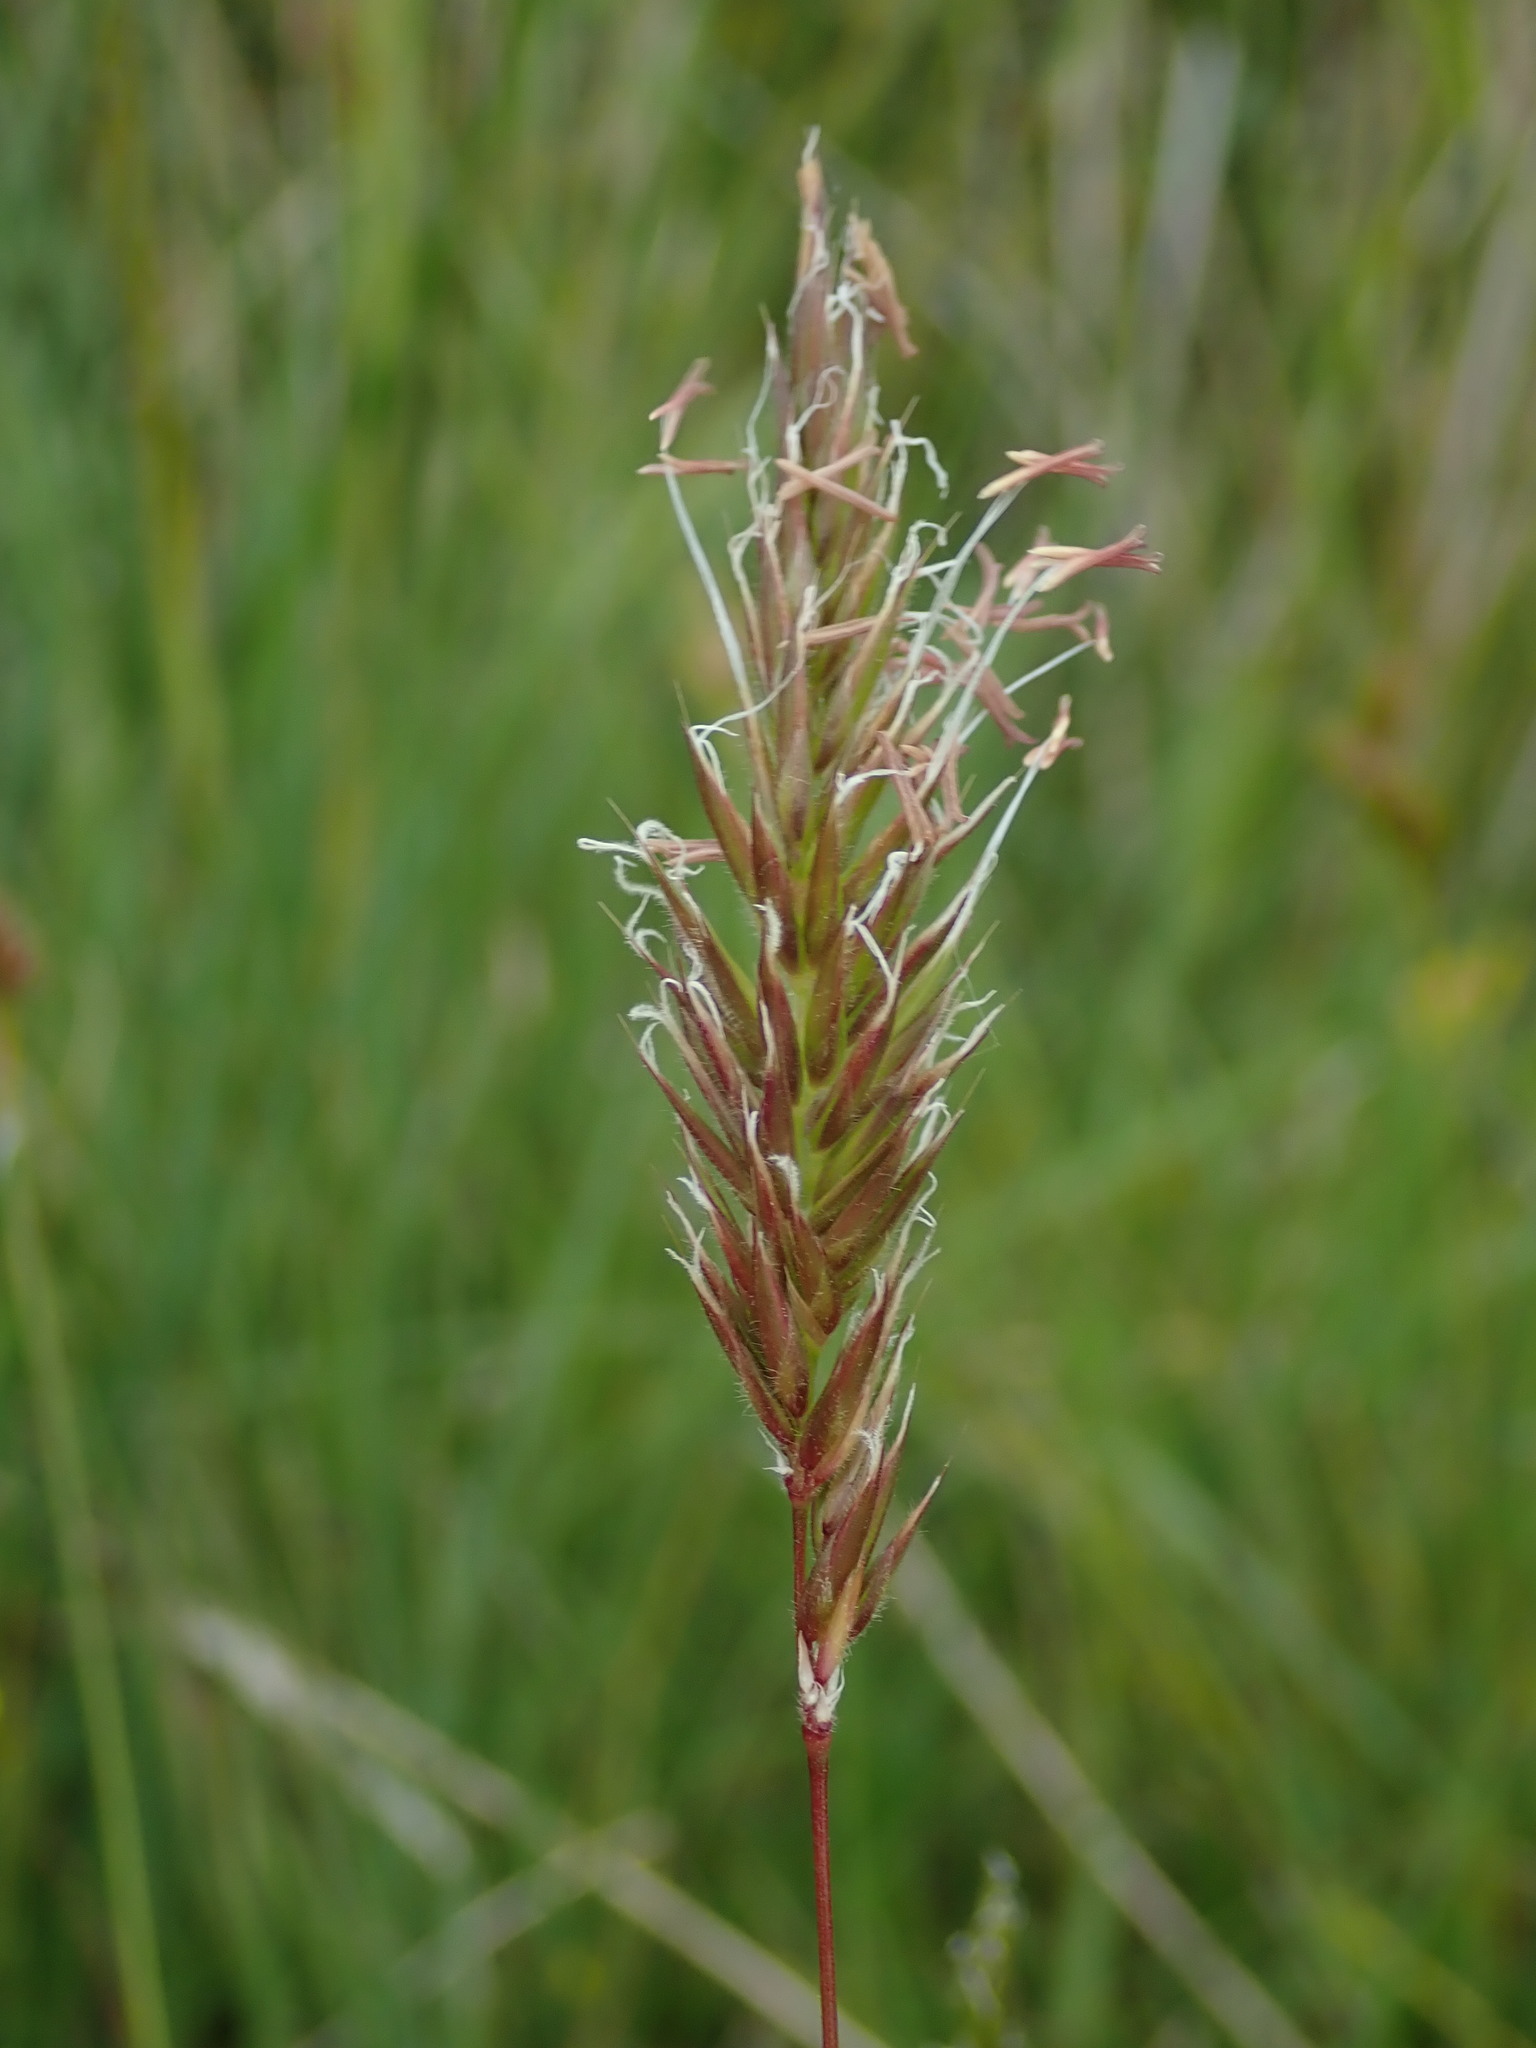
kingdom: Plantae
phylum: Tracheophyta
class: Liliopsida
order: Poales
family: Poaceae
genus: Anthoxanthum
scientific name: Anthoxanthum odoratum
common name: Sweet vernalgrass
